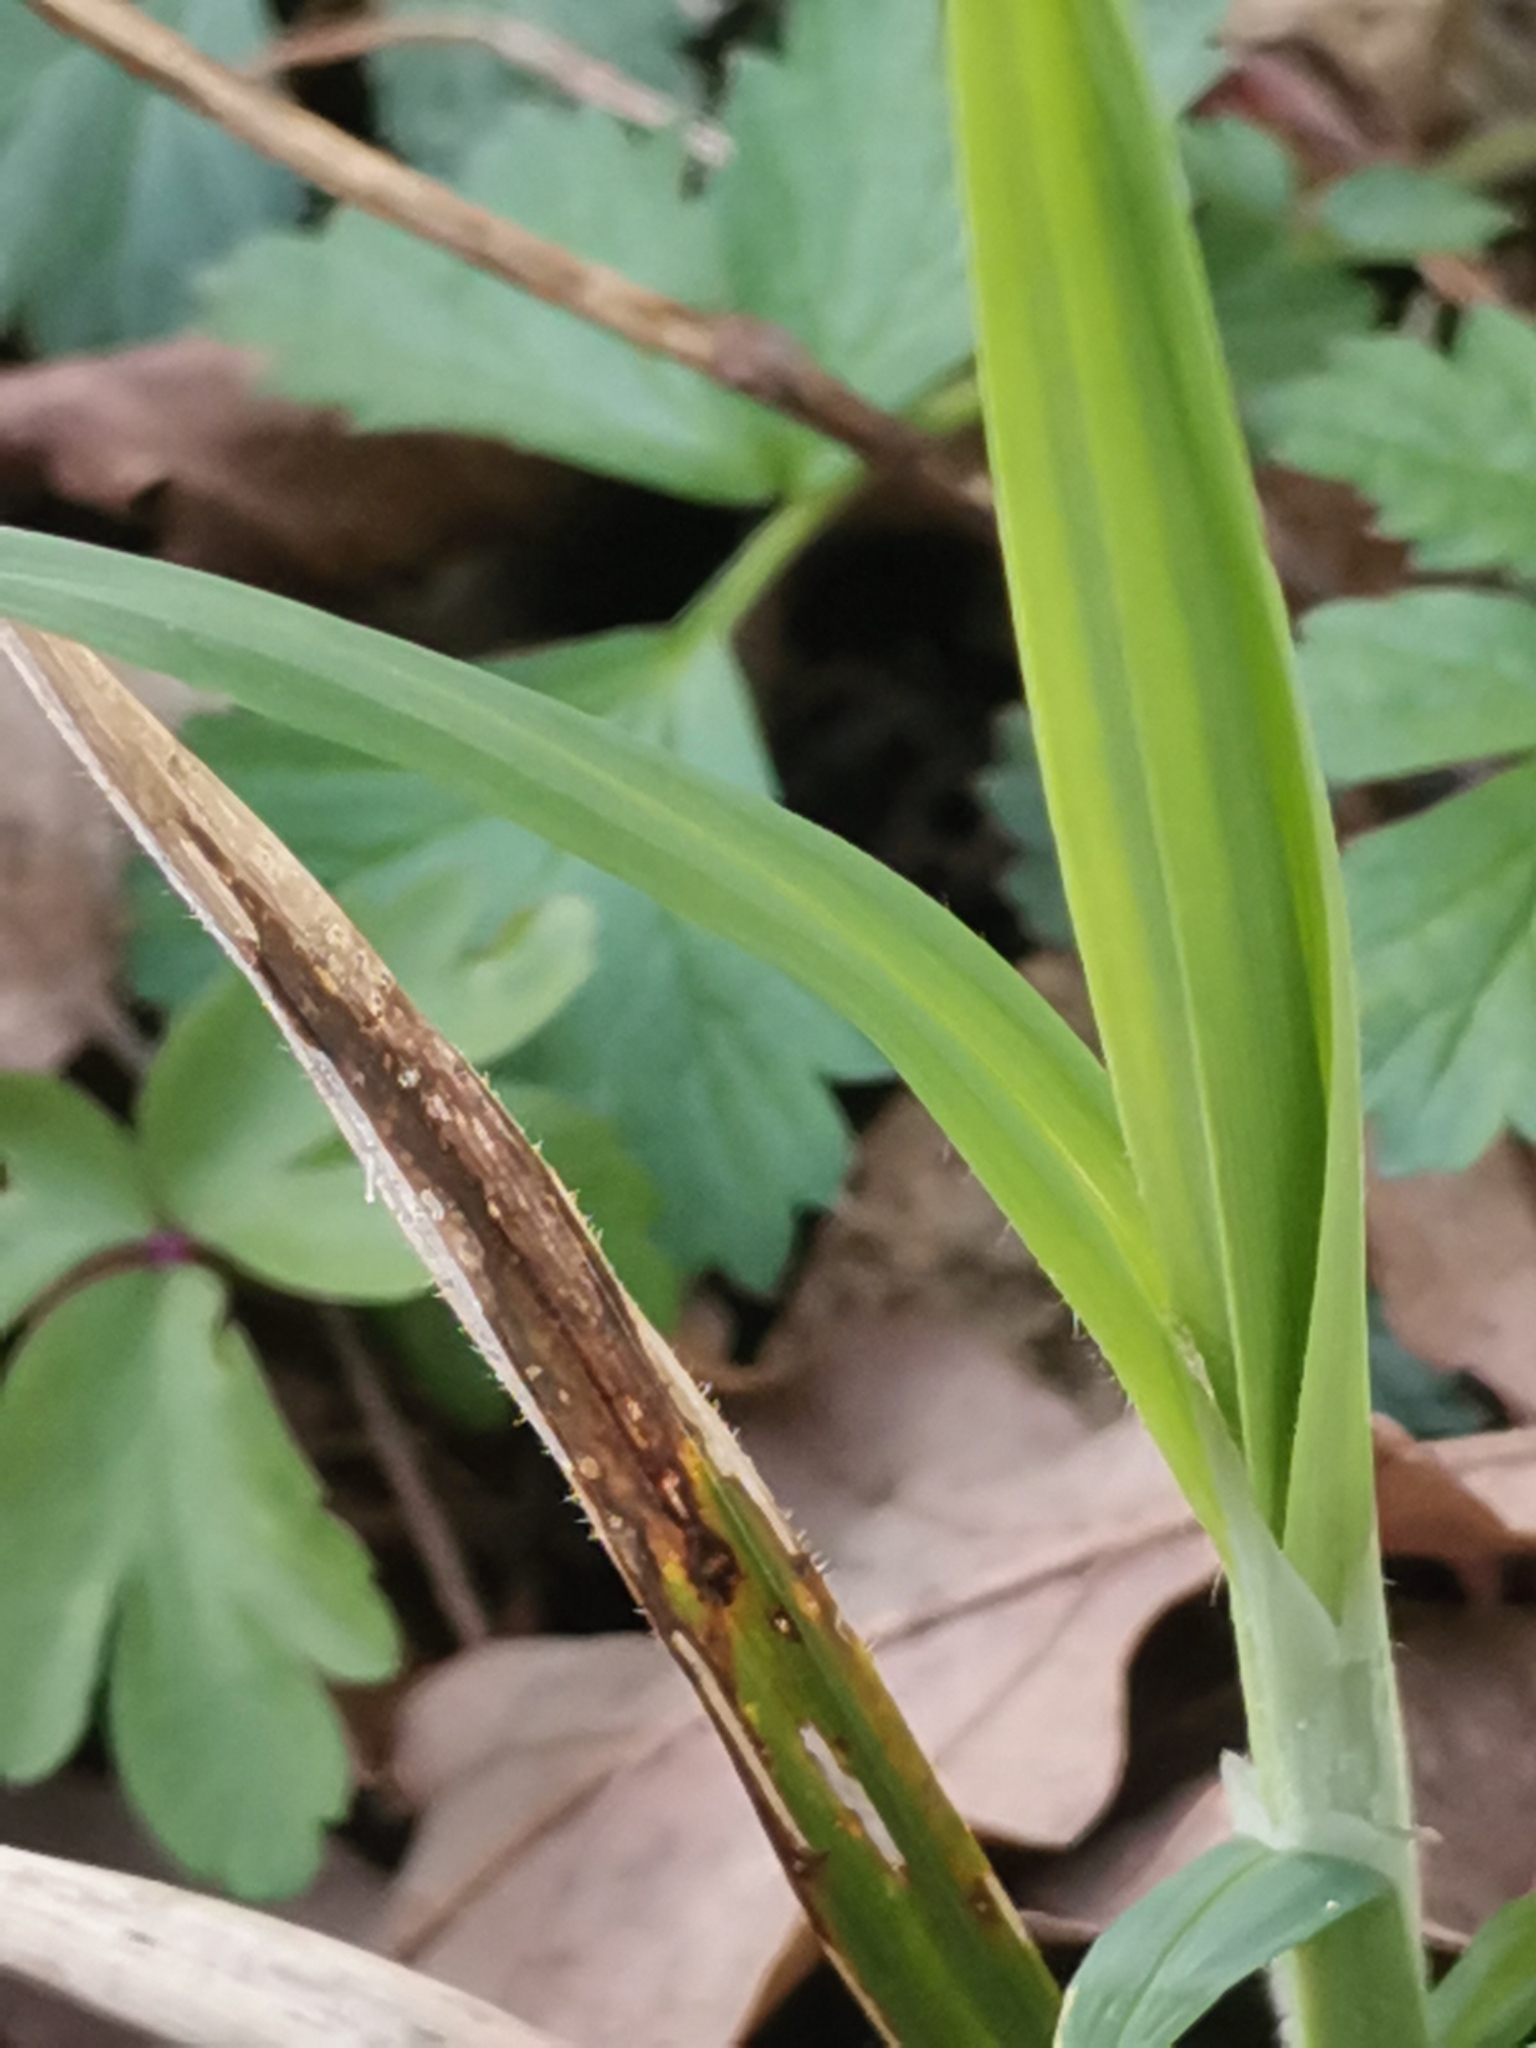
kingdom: Plantae
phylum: Tracheophyta
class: Liliopsida
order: Poales
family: Cyperaceae
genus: Carex
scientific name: Carex pilosa
